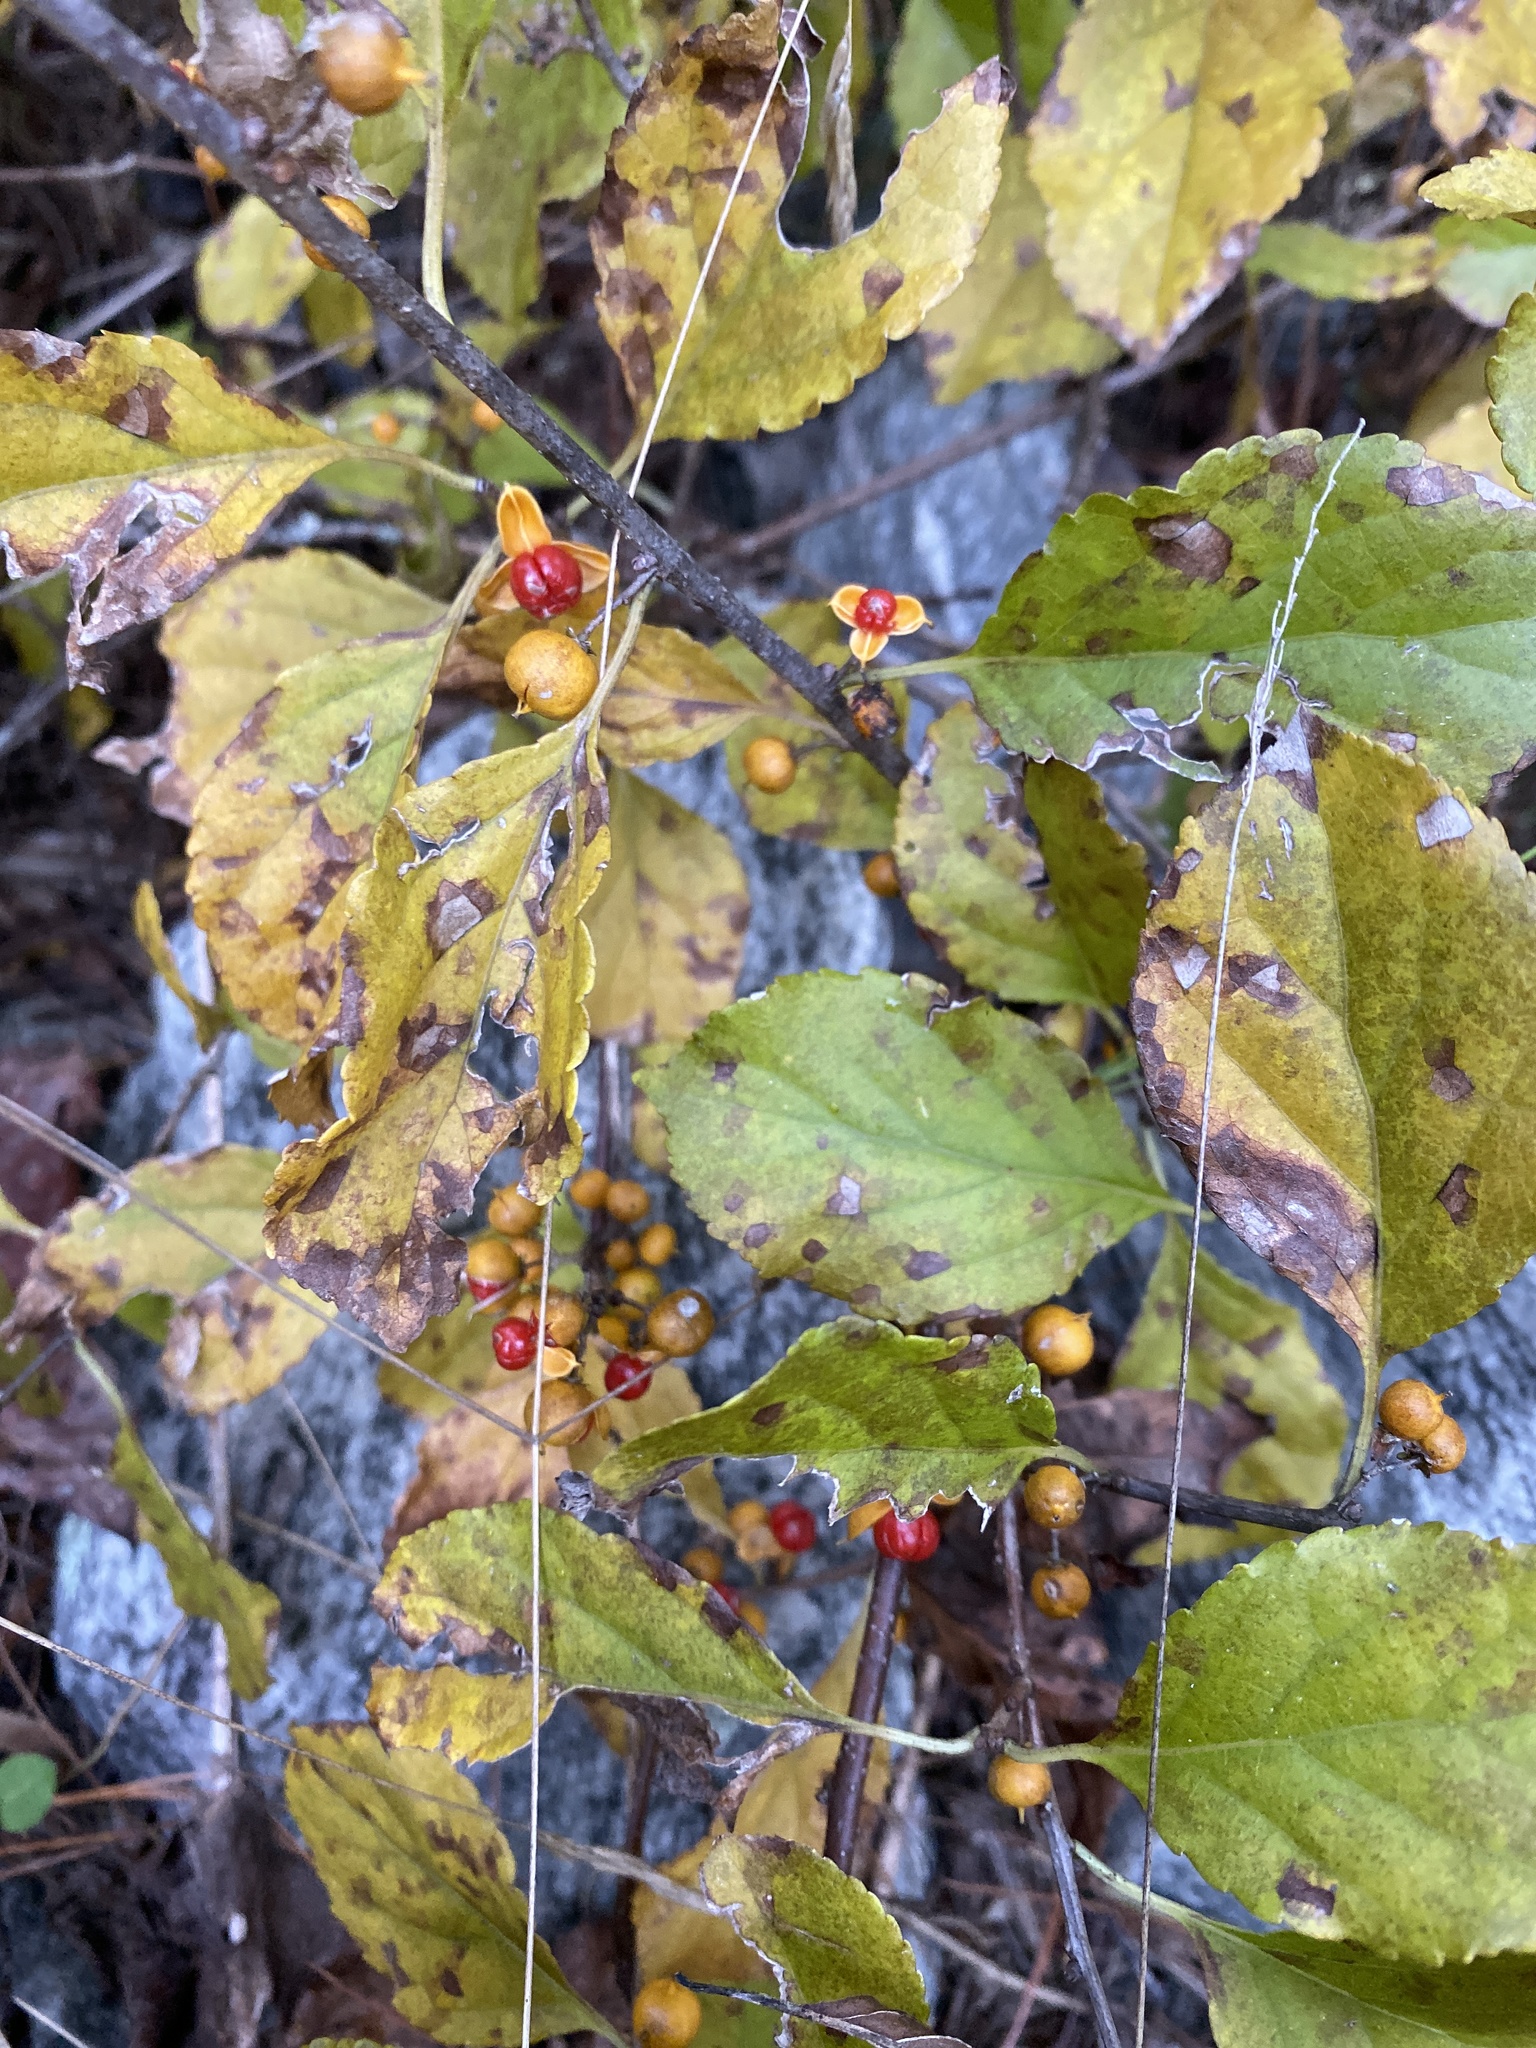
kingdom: Plantae
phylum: Tracheophyta
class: Magnoliopsida
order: Celastrales
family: Celastraceae
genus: Celastrus
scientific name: Celastrus orbiculatus
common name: Oriental bittersweet
